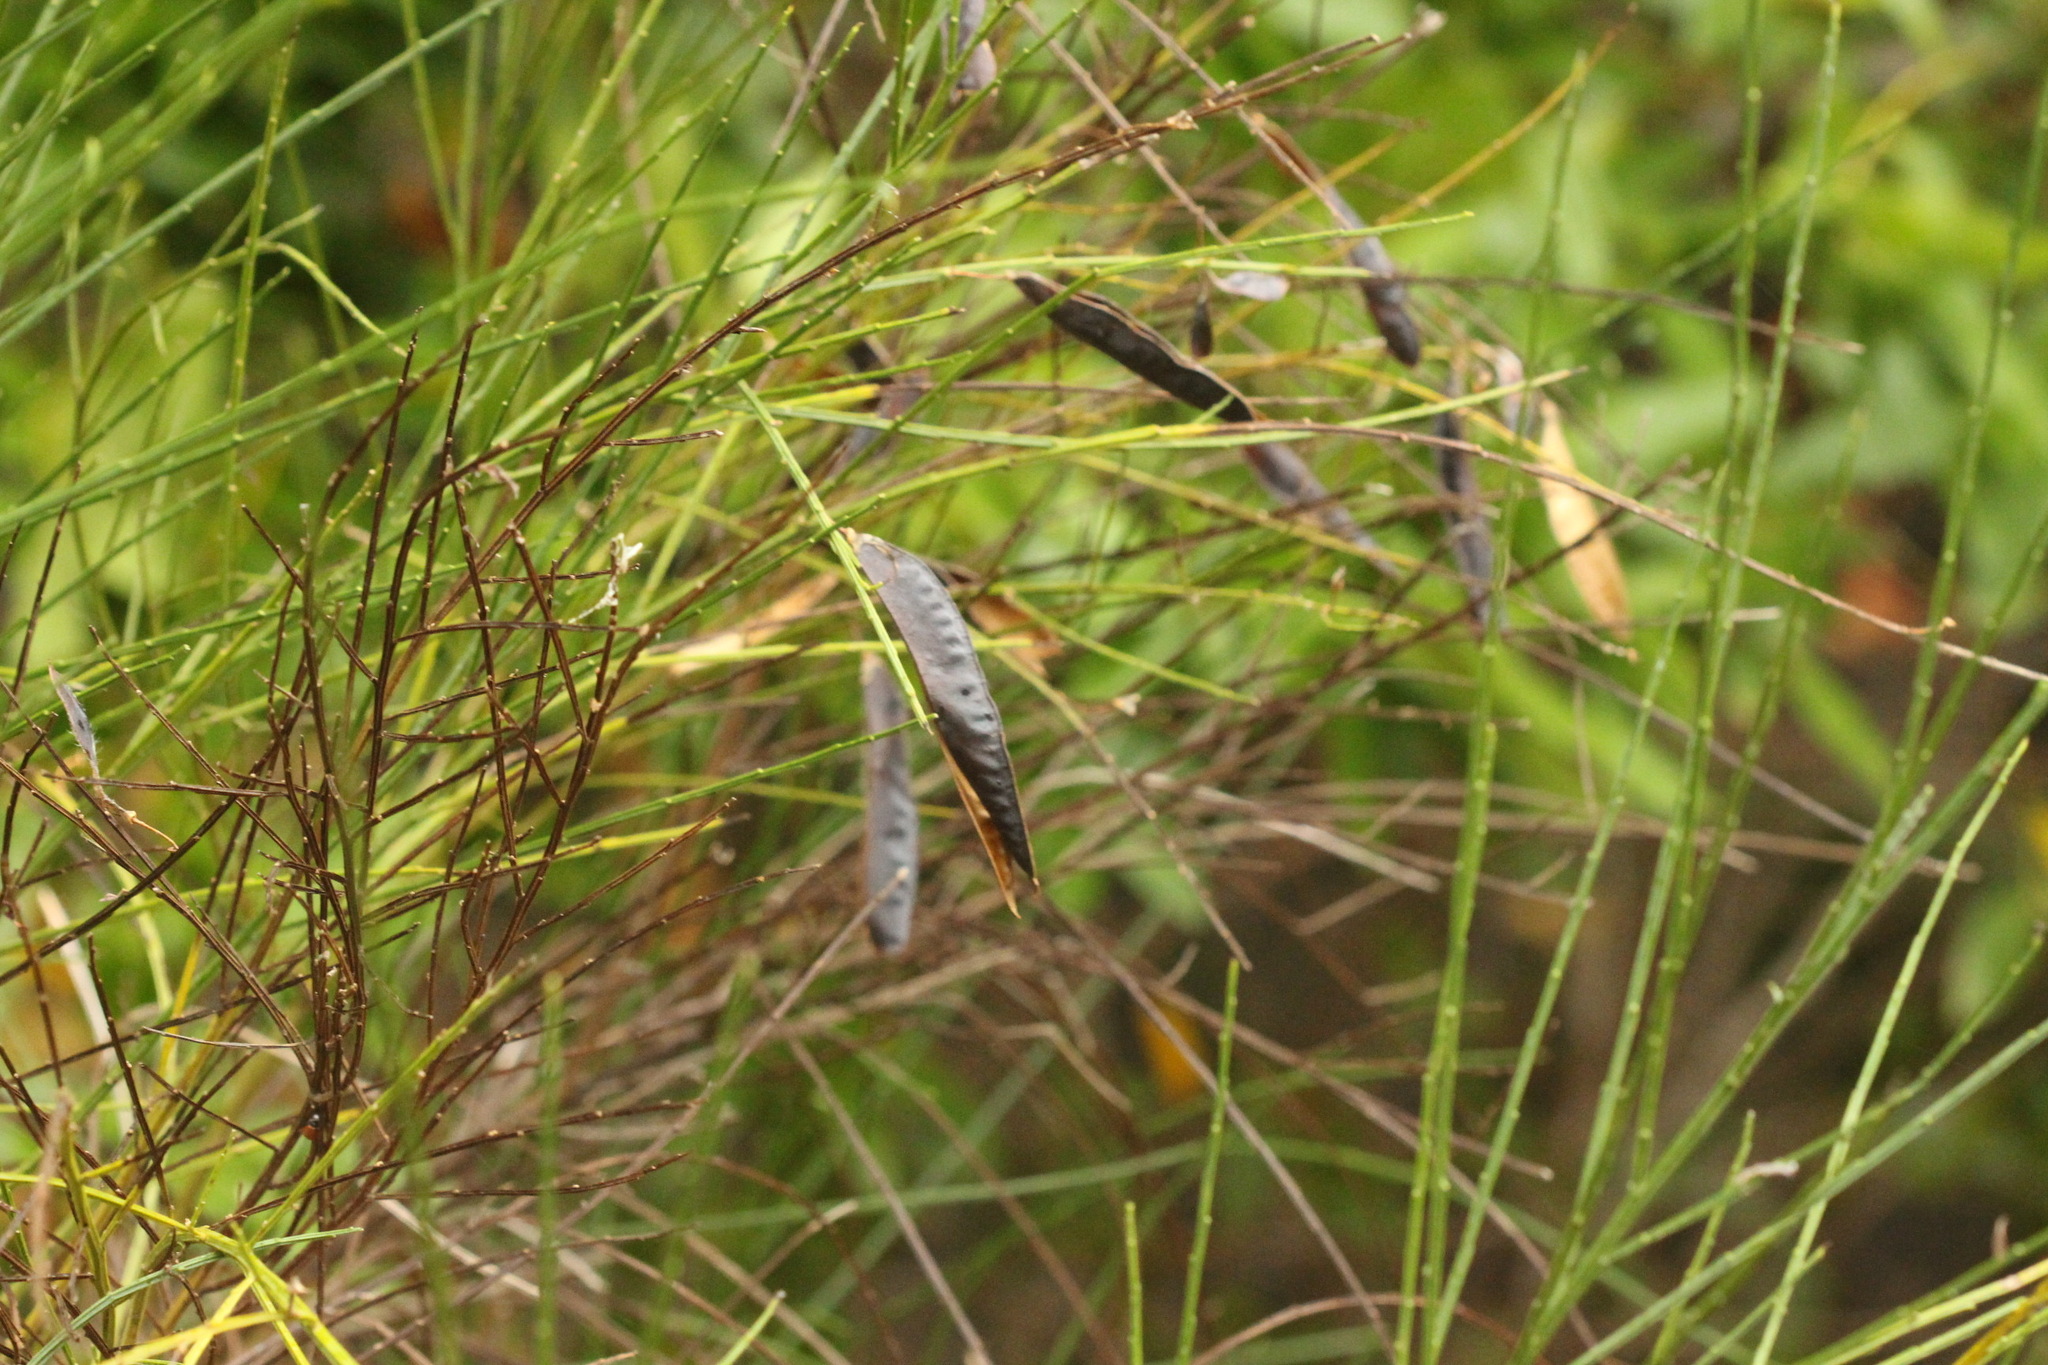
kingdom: Plantae
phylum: Tracheophyta
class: Magnoliopsida
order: Fabales
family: Fabaceae
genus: Cytisus
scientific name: Cytisus scoparius
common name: Scotch broom
